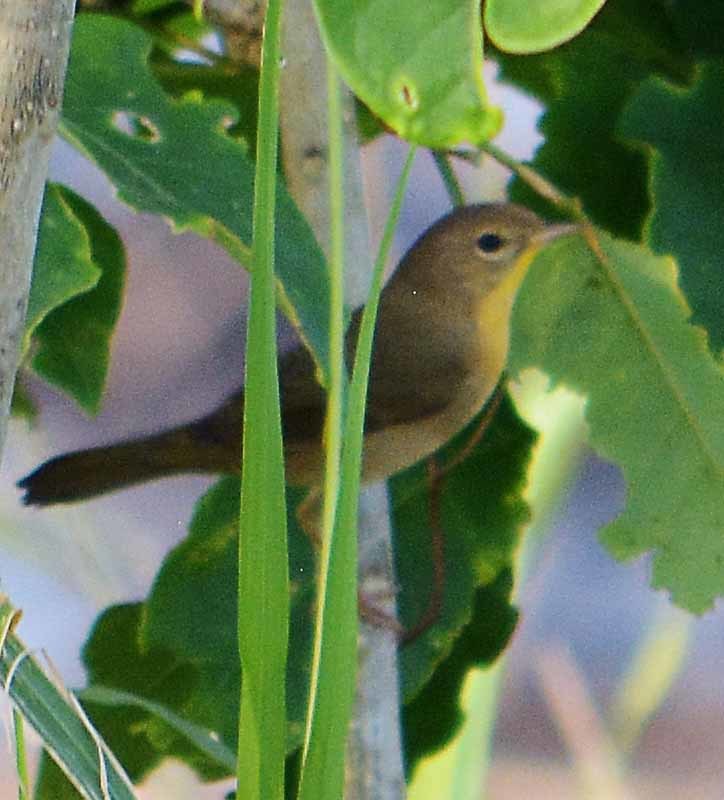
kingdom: Animalia
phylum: Chordata
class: Aves
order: Passeriformes
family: Parulidae
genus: Geothlypis
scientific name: Geothlypis trichas
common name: Common yellowthroat
